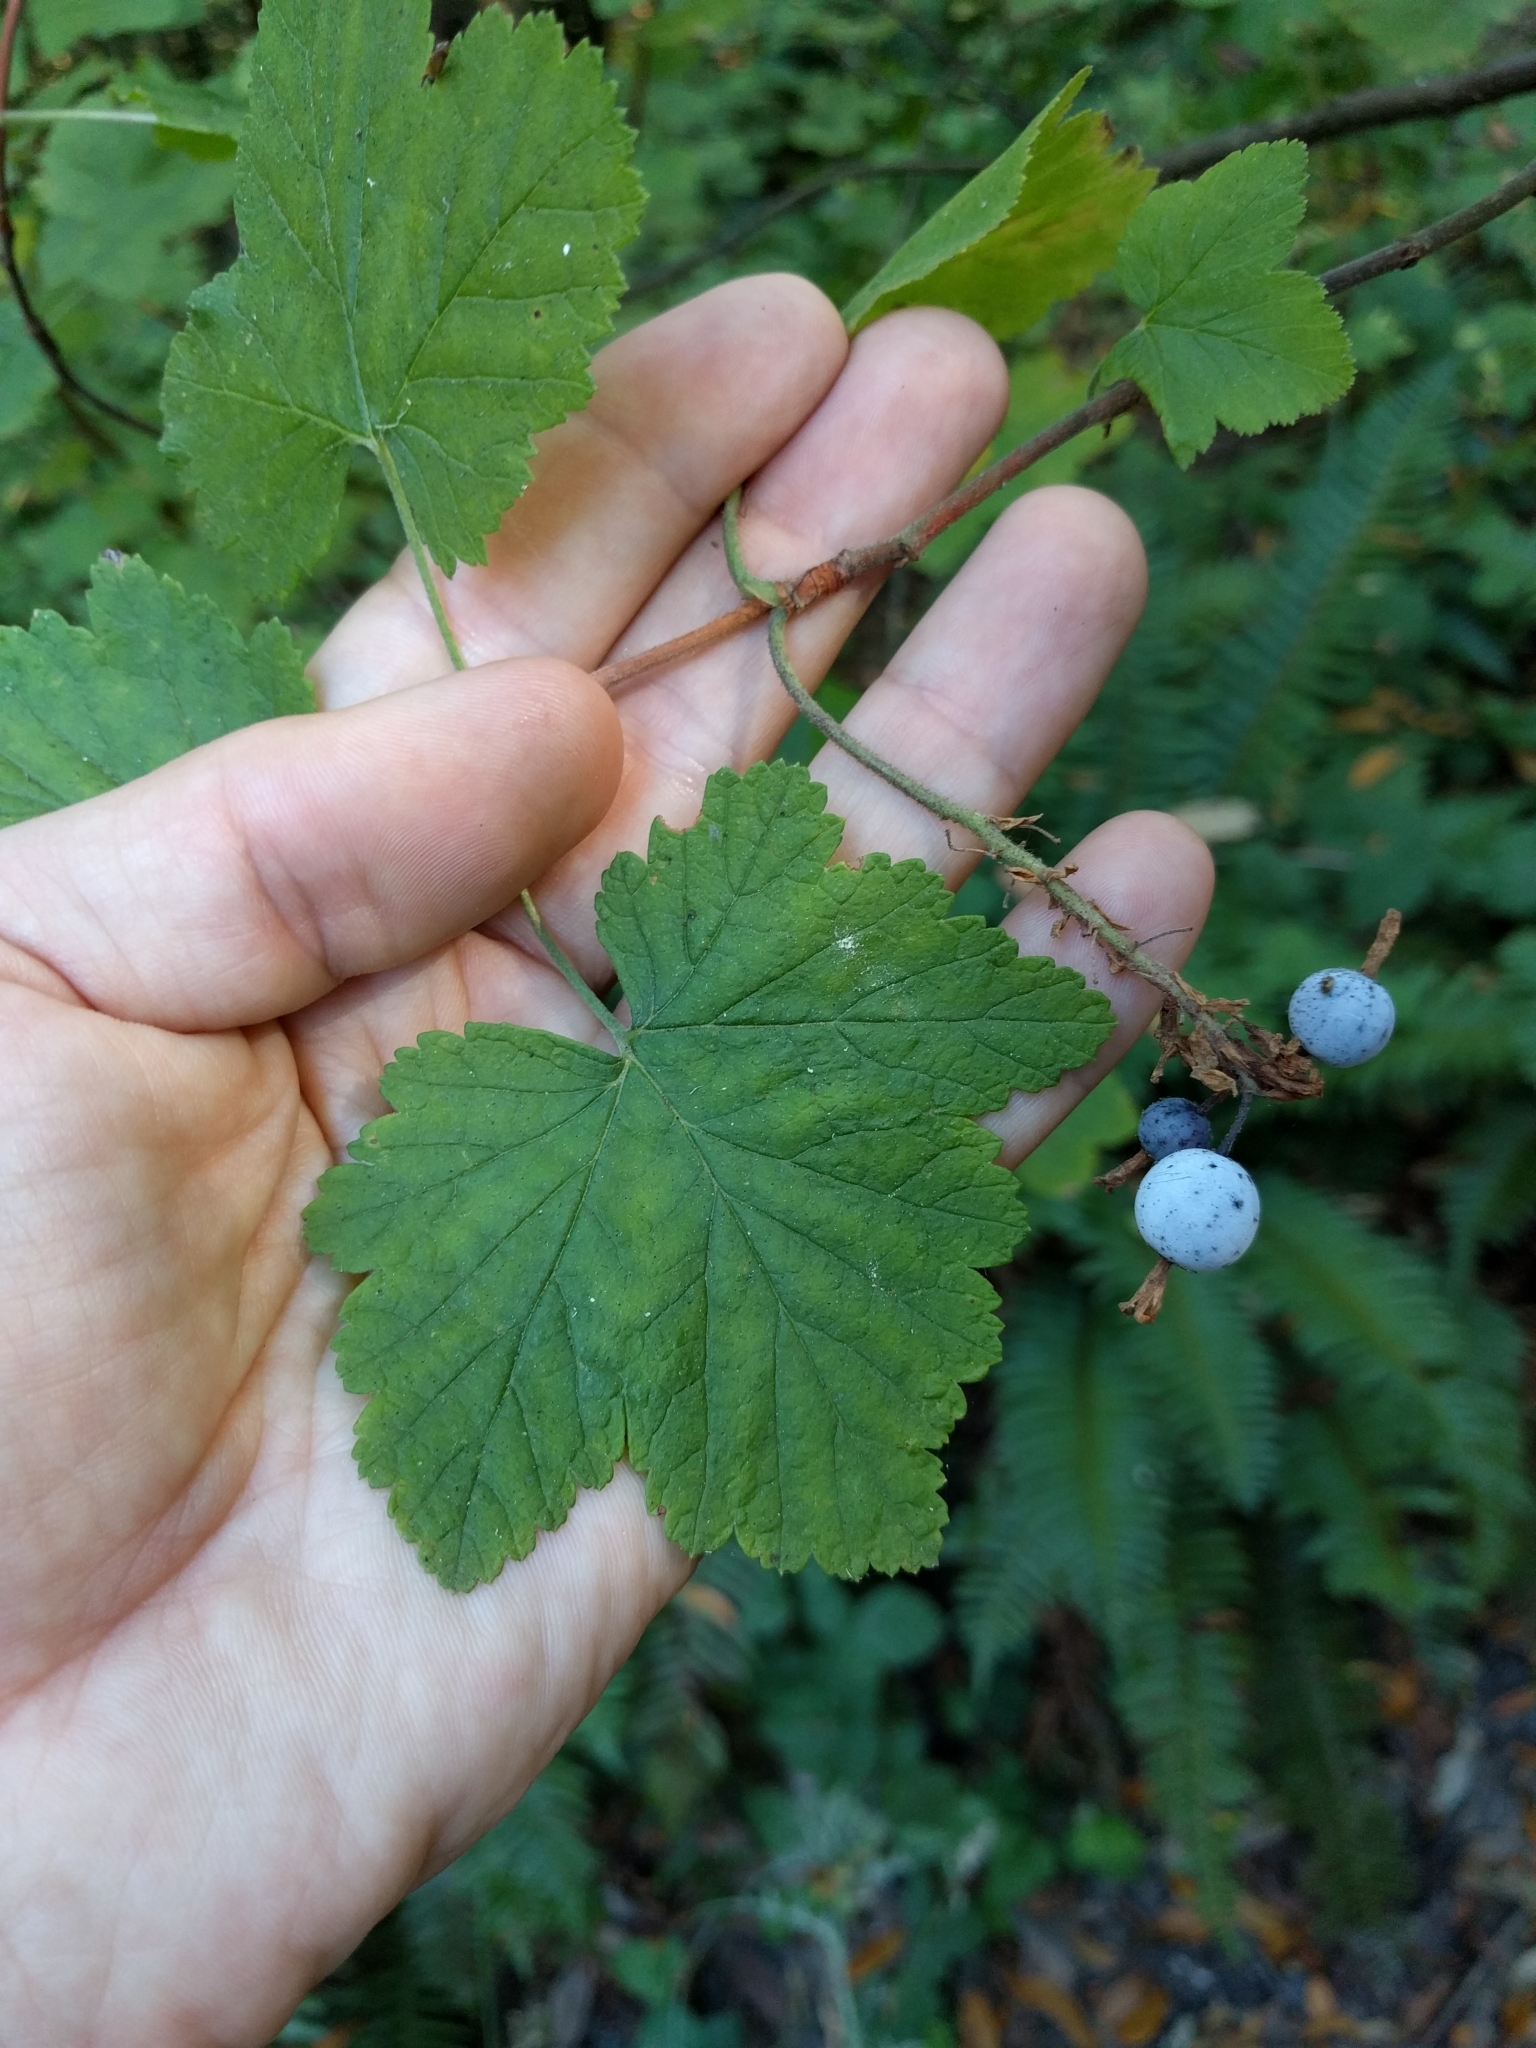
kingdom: Plantae
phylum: Tracheophyta
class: Magnoliopsida
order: Saxifragales
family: Grossulariaceae
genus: Ribes
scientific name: Ribes sanguineum
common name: Flowering currant
